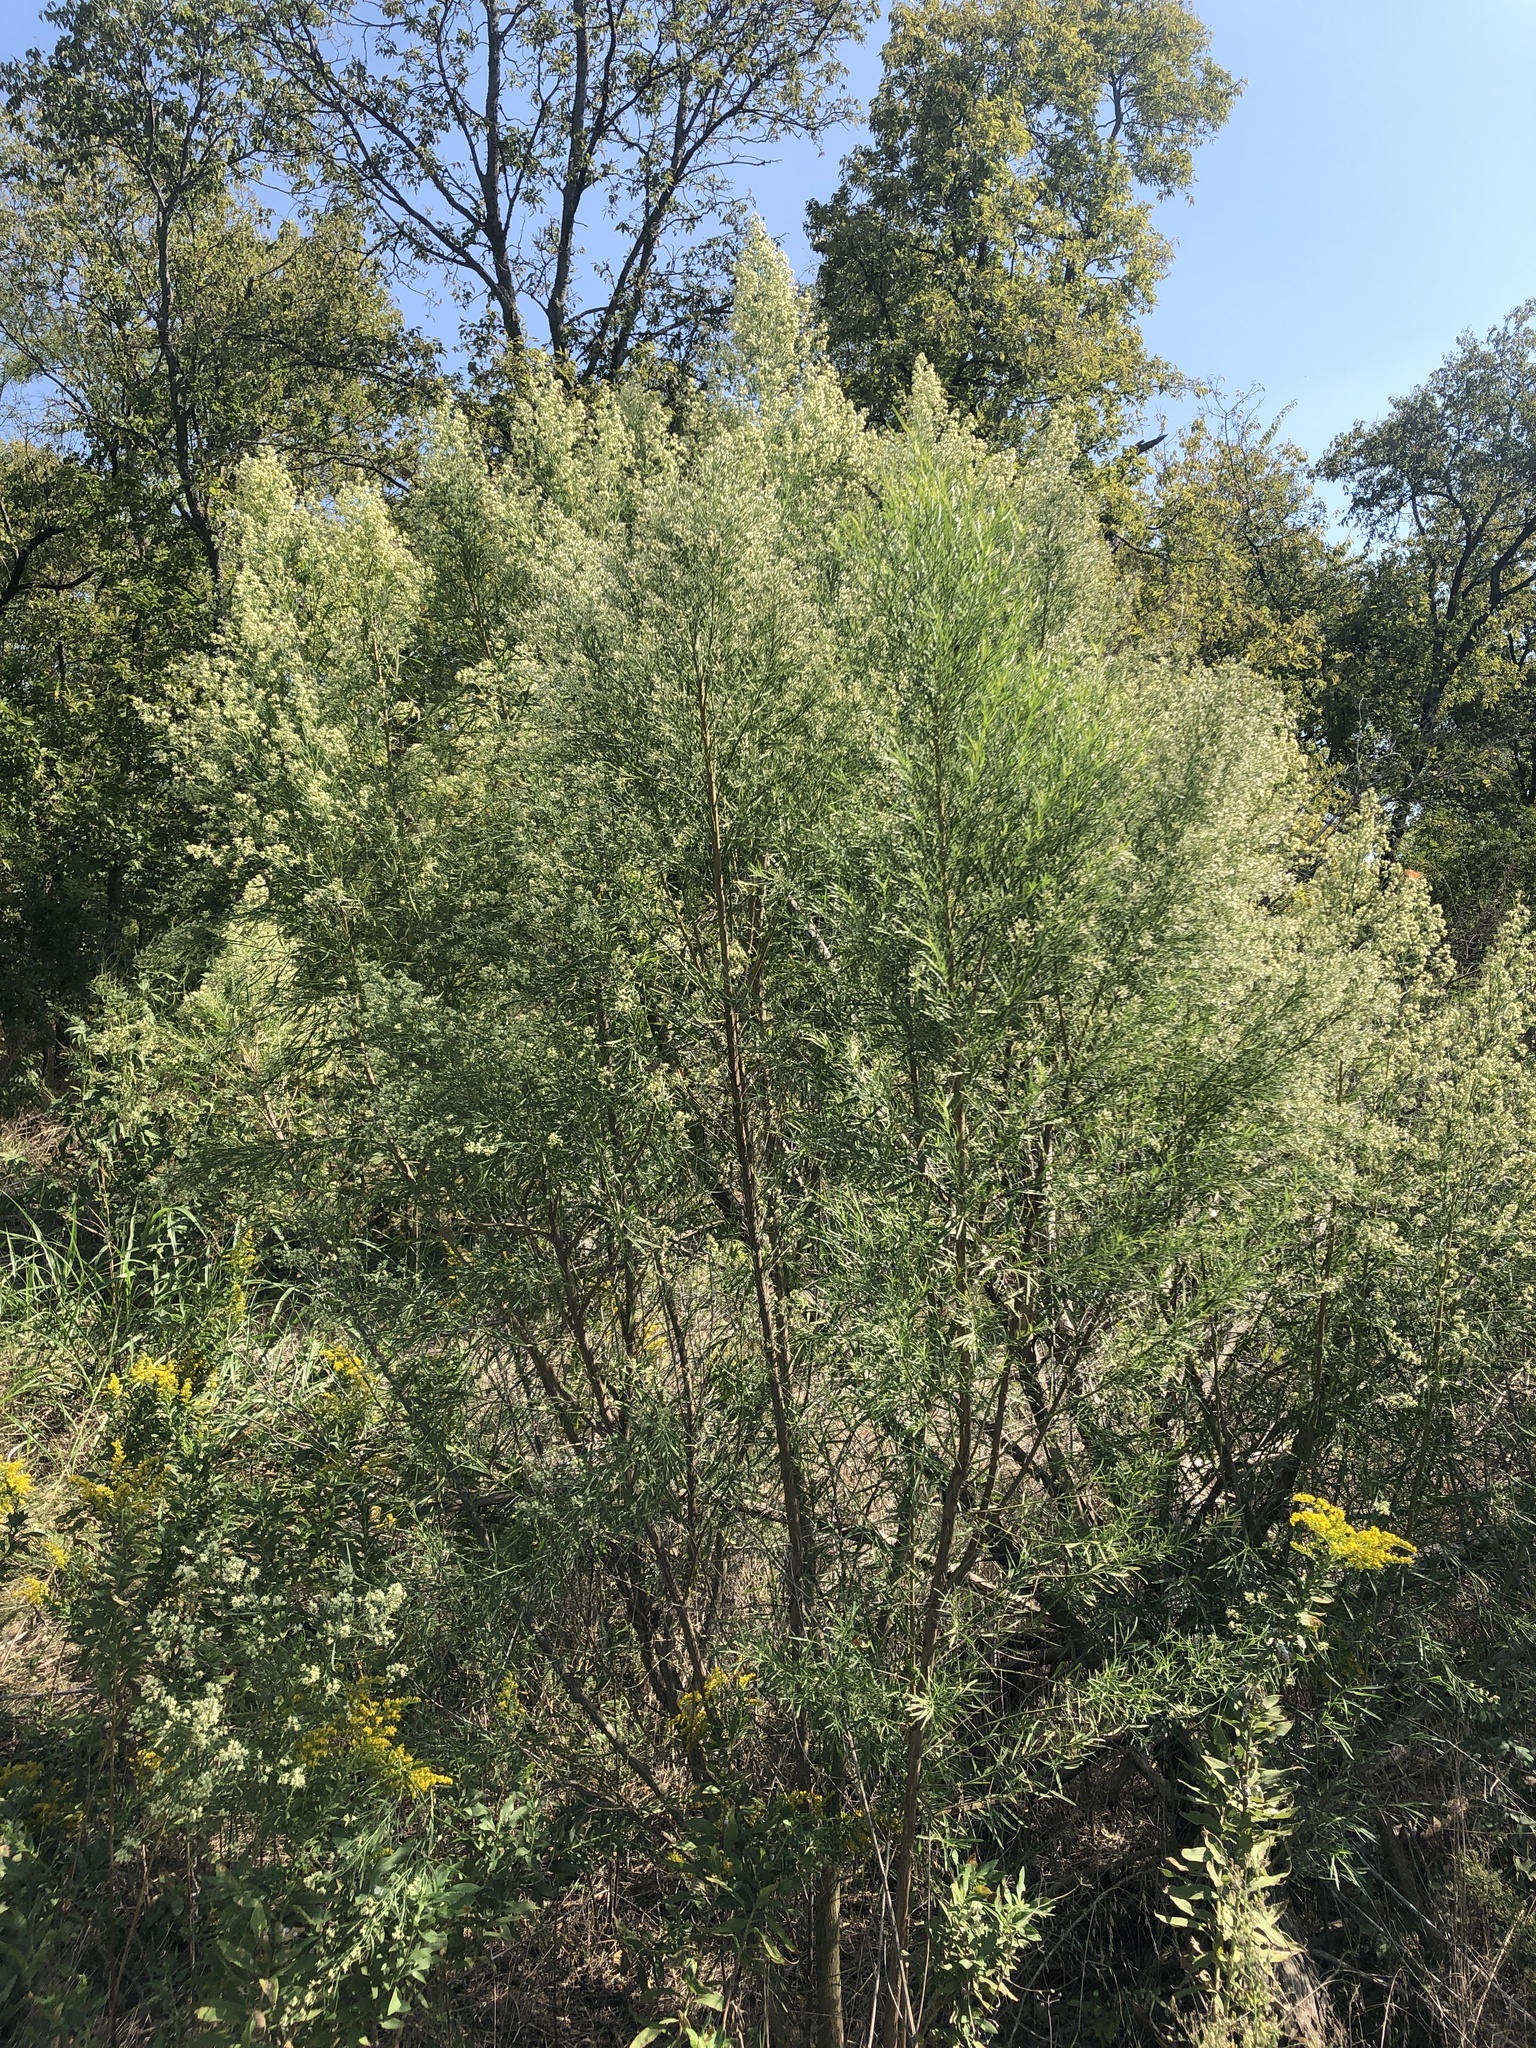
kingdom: Plantae
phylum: Tracheophyta
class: Magnoliopsida
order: Asterales
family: Asteraceae
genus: Baccharis
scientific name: Baccharis neglecta
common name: Roosevelt-weed
